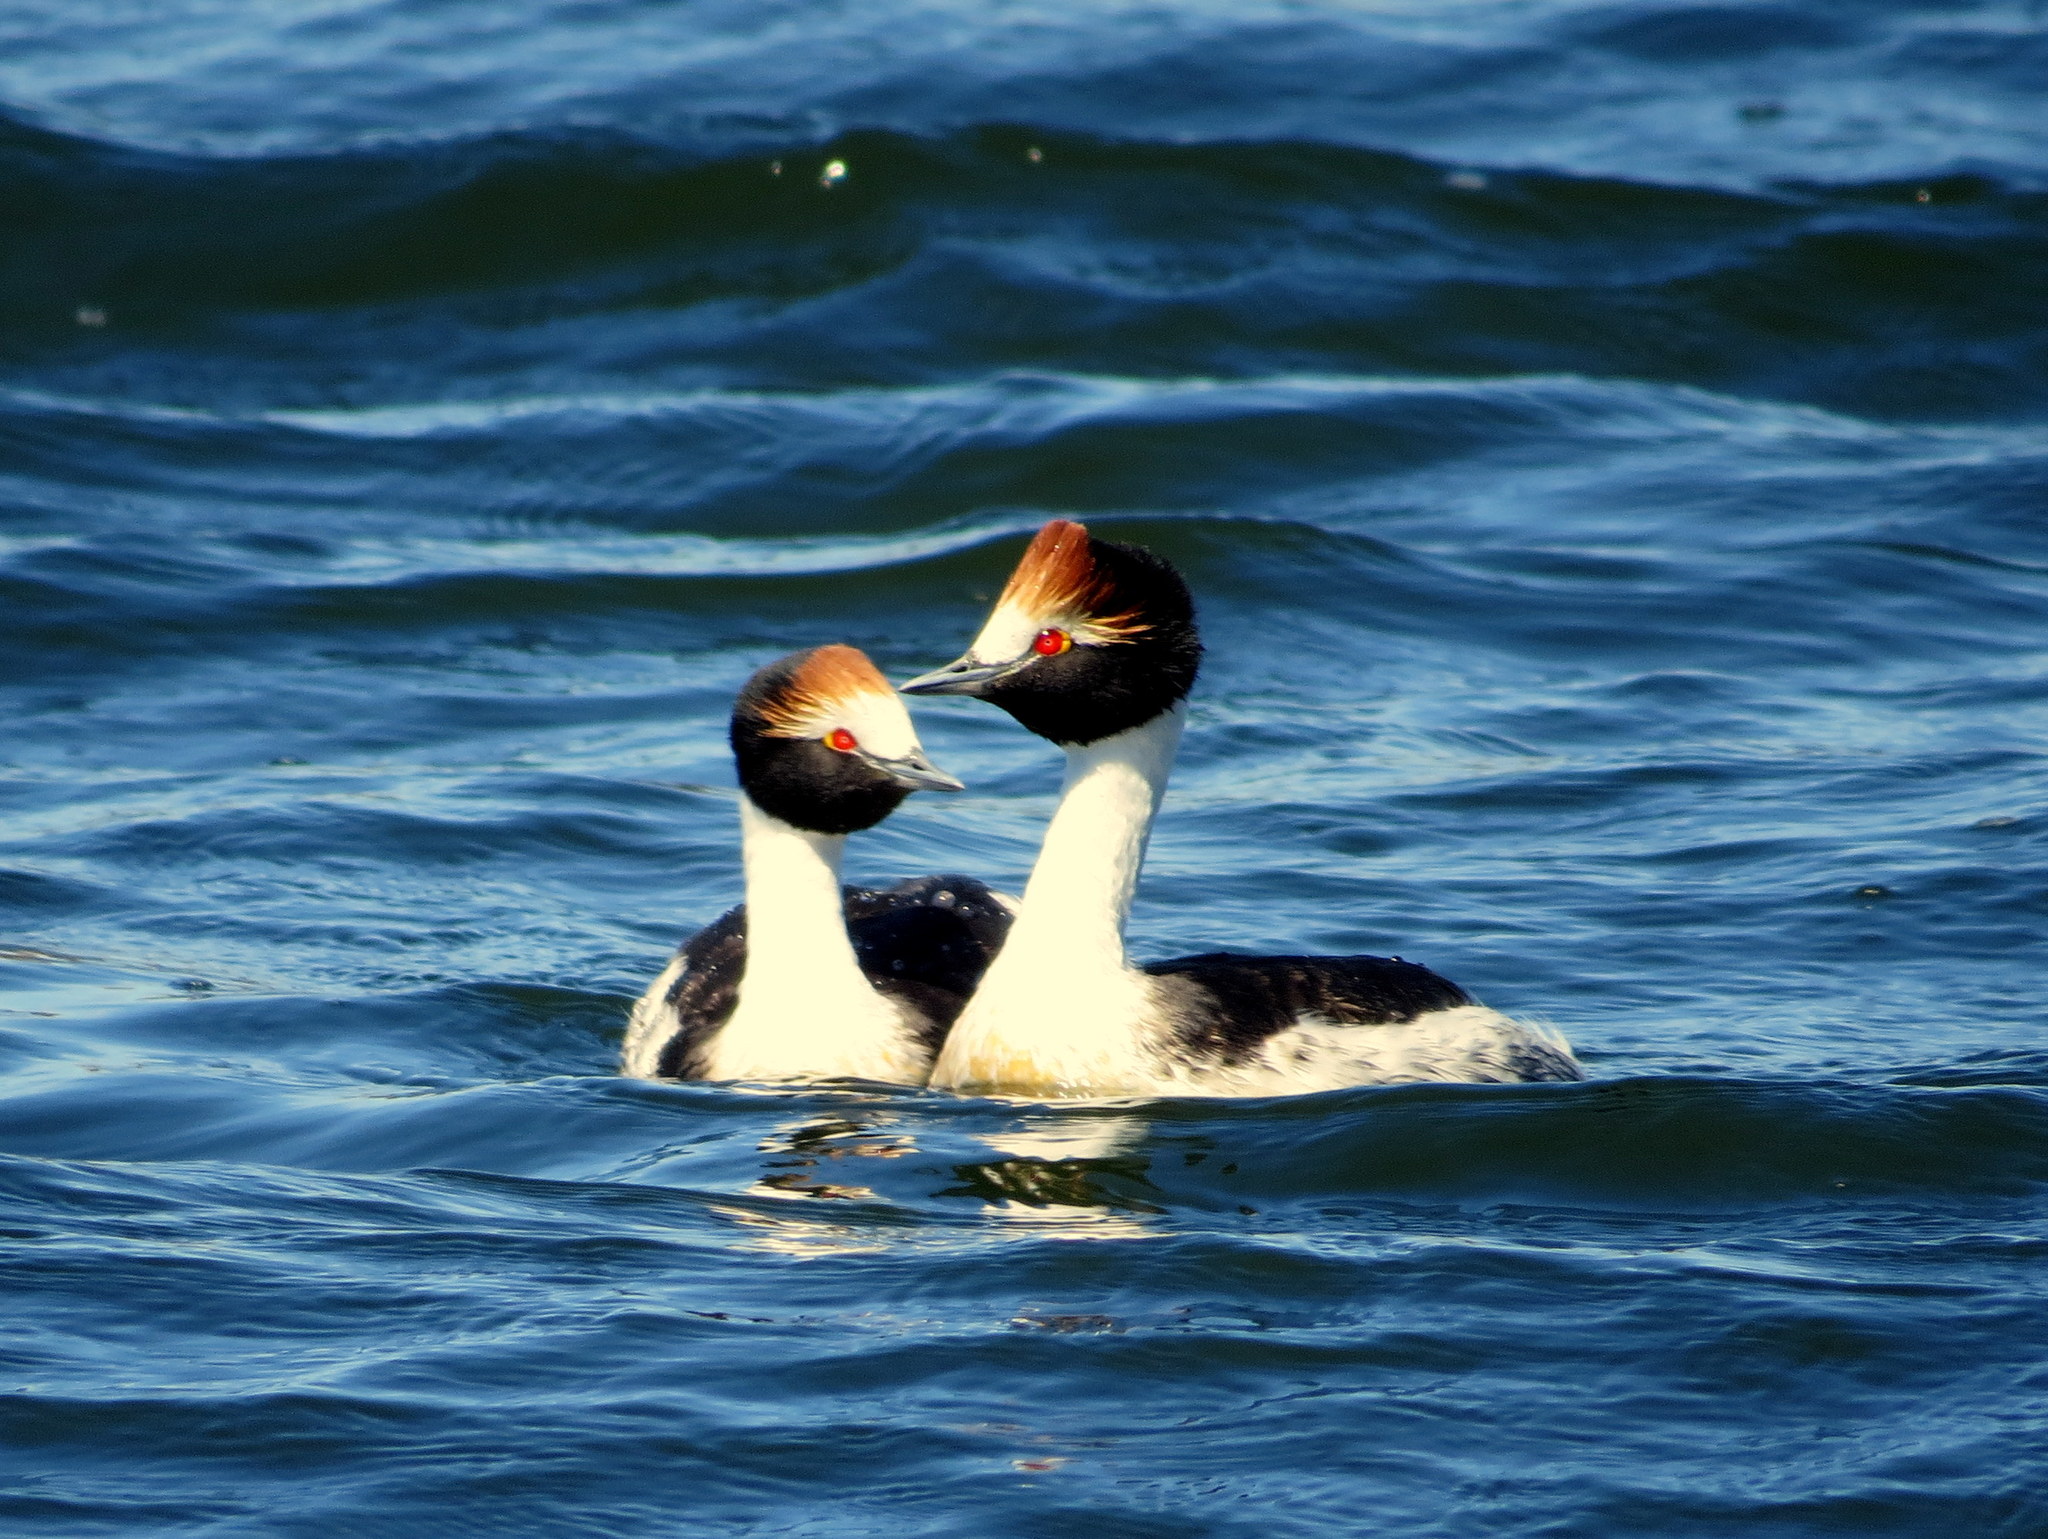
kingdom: Animalia
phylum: Chordata
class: Aves
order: Podicipediformes
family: Podicipedidae
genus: Podiceps
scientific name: Podiceps gallardoi
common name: Hooded grebe
